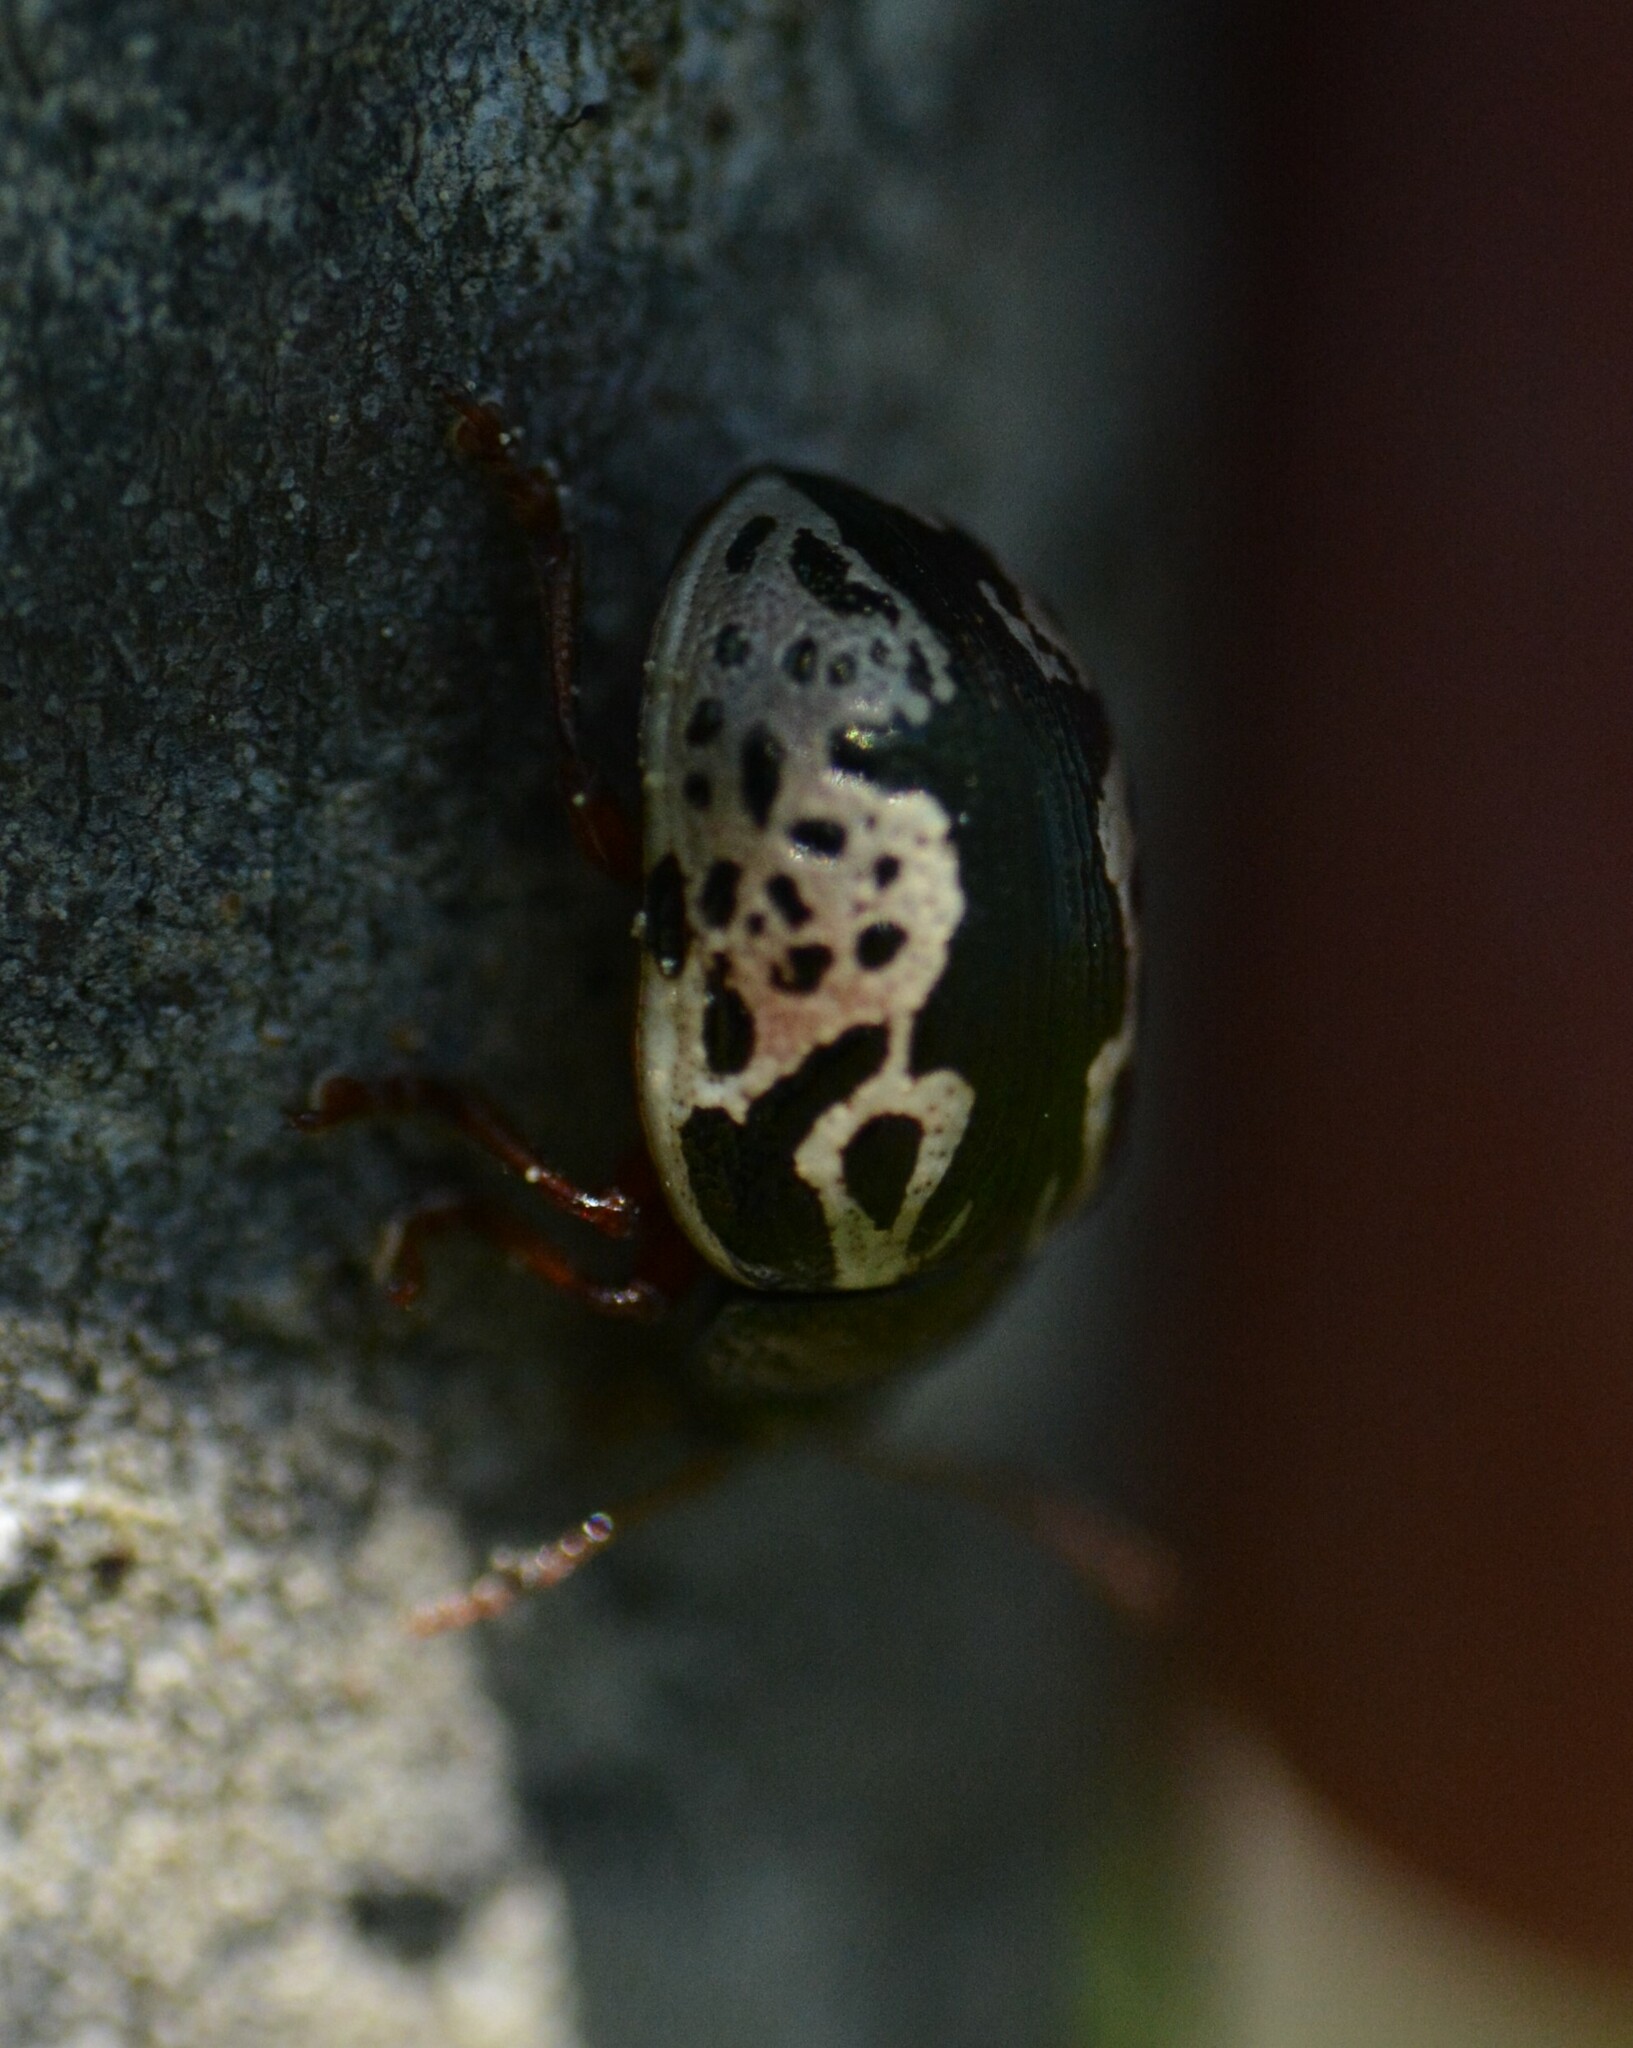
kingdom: Animalia
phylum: Arthropoda
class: Insecta
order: Coleoptera
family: Chrysomelidae
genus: Calligrapha
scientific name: Calligrapha confluens
